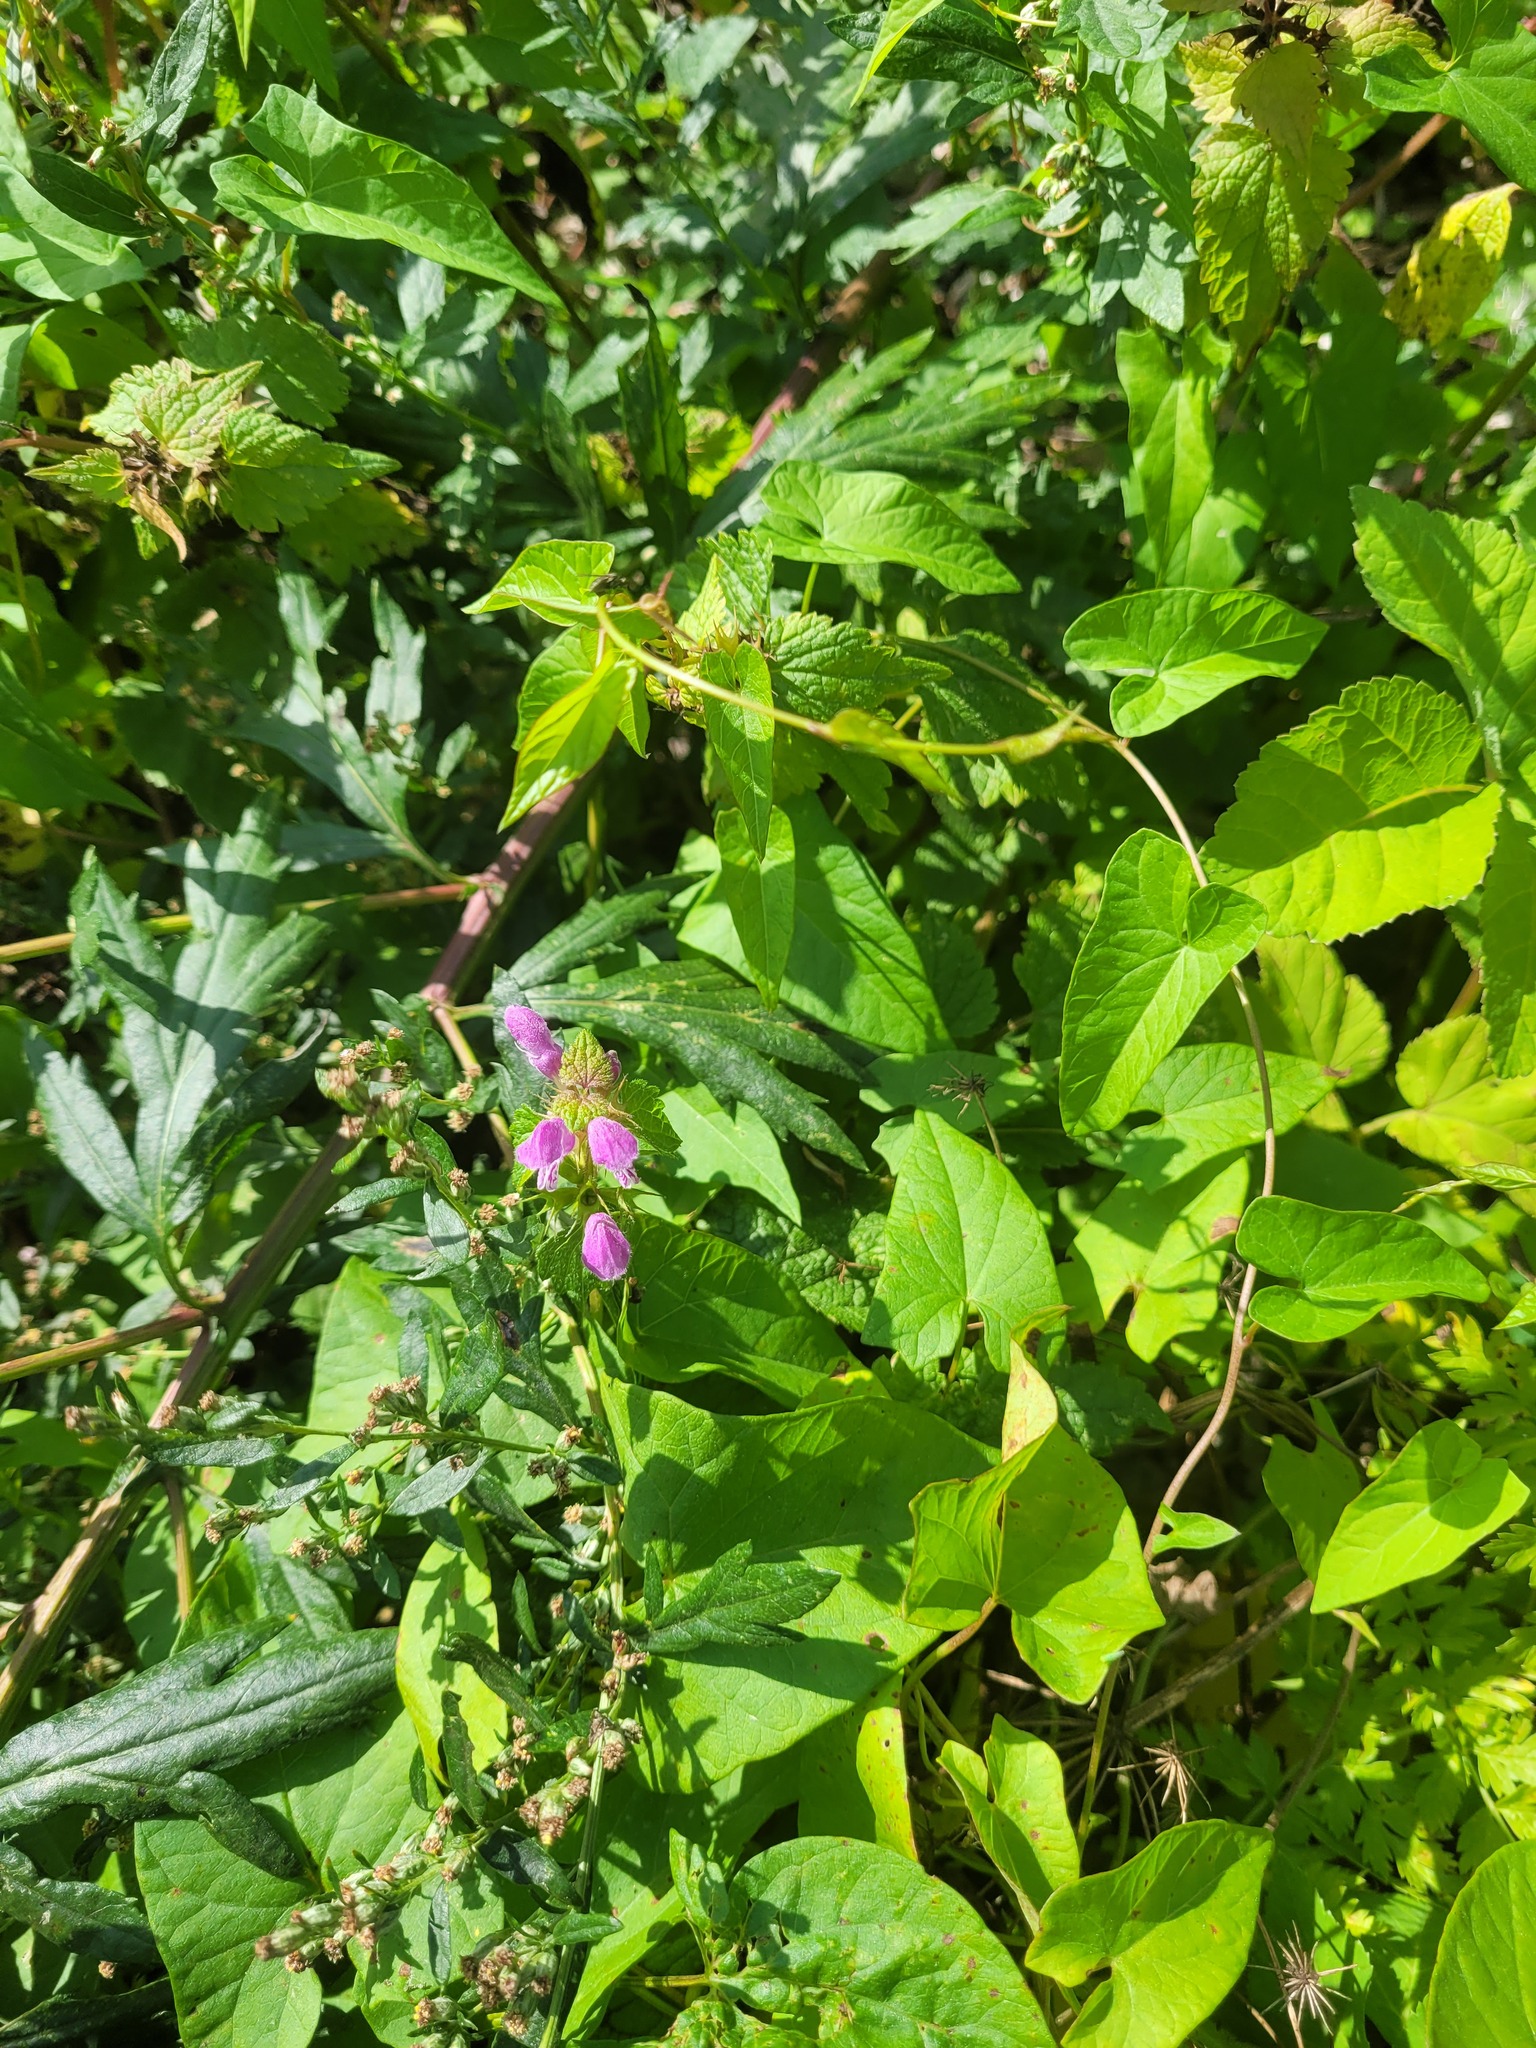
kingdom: Plantae
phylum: Tracheophyta
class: Magnoliopsida
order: Lamiales
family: Lamiaceae
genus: Lamium
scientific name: Lamium maculatum
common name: Spotted dead-nettle
